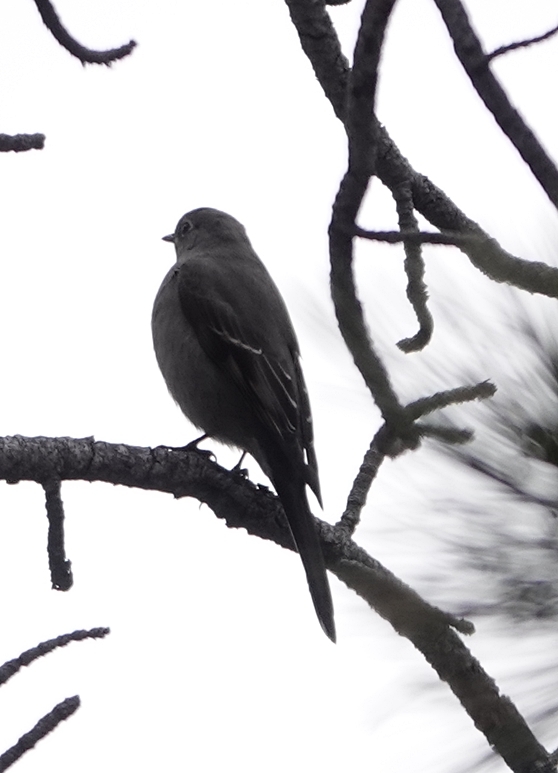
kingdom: Animalia
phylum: Chordata
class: Aves
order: Passeriformes
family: Turdidae
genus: Myadestes
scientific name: Myadestes townsendi
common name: Townsend's solitaire
